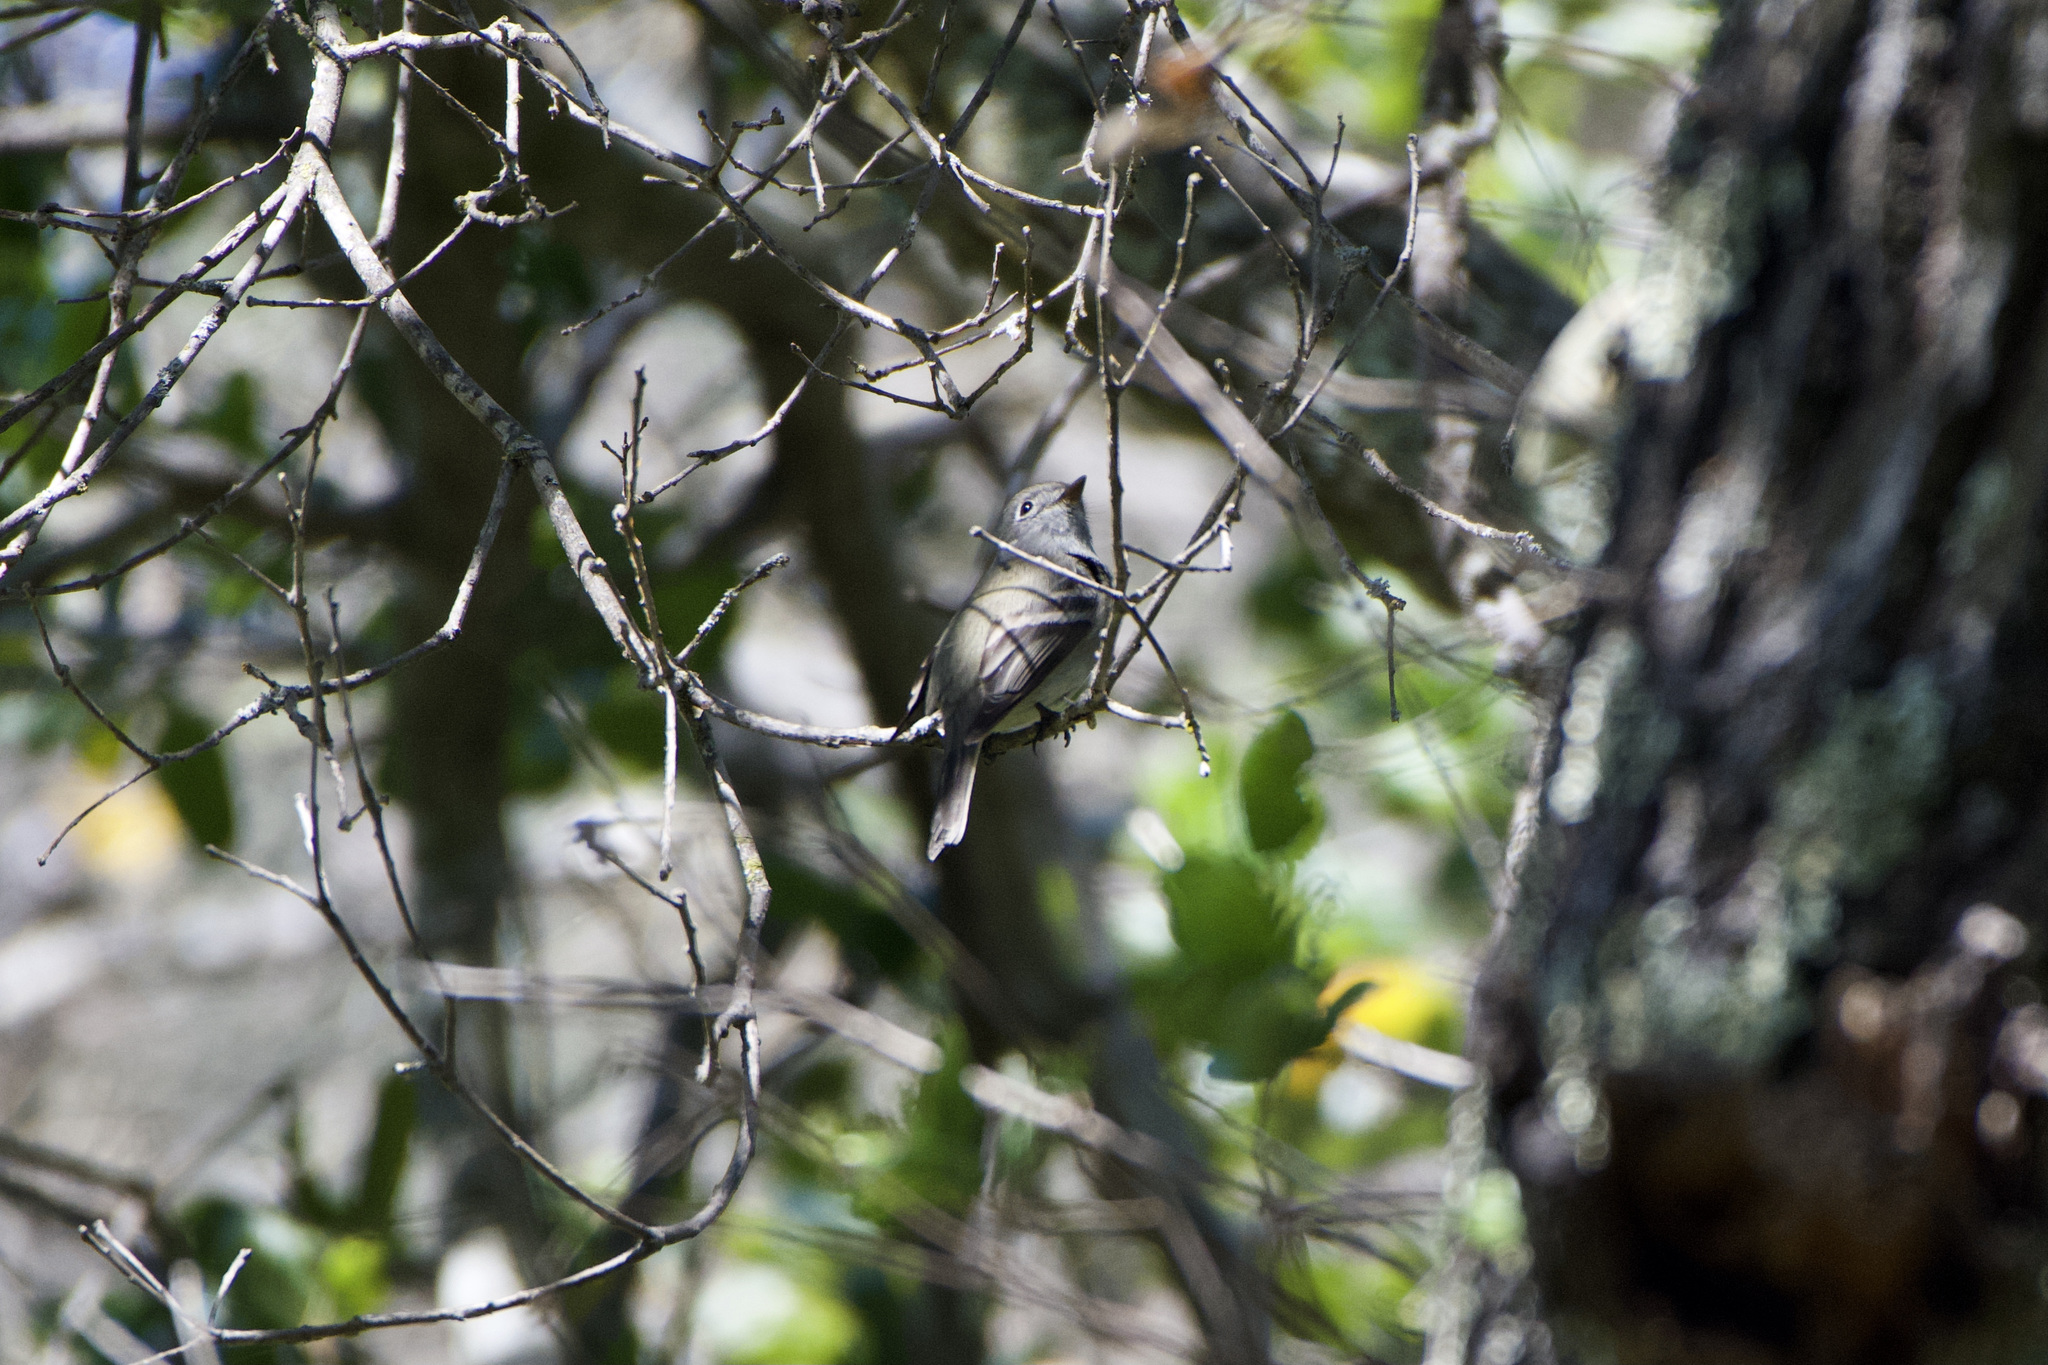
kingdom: Animalia
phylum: Chordata
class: Aves
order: Passeriformes
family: Tyrannidae
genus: Empidonax
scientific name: Empidonax hammondii
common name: Hammond's flycatcher
